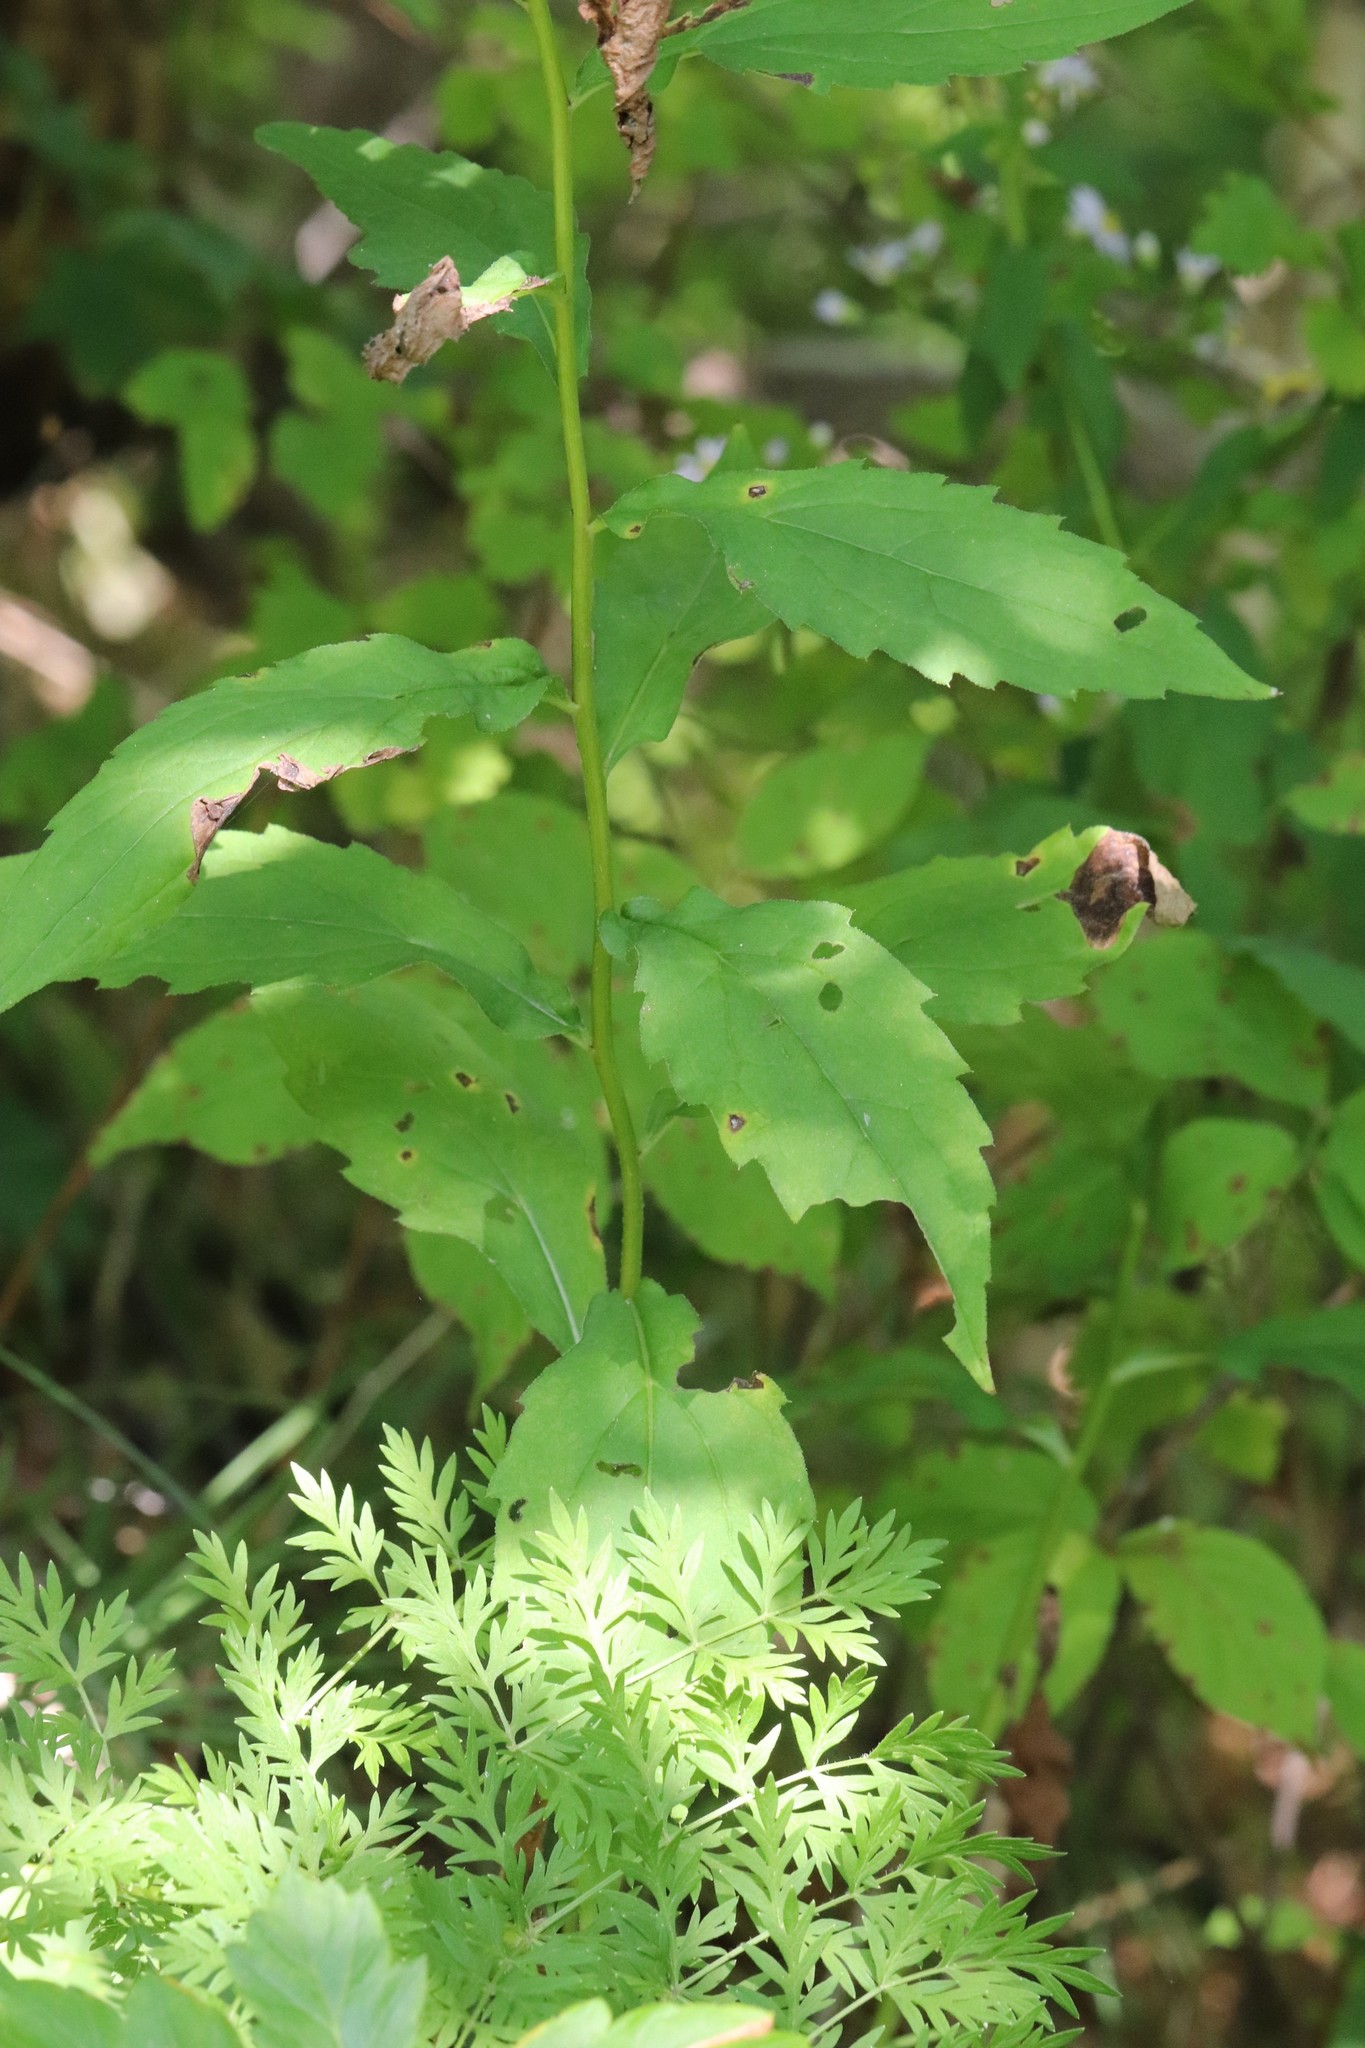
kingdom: Plantae
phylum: Tracheophyta
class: Magnoliopsida
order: Asterales
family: Asteraceae
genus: Aster
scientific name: Aster ageratoides
